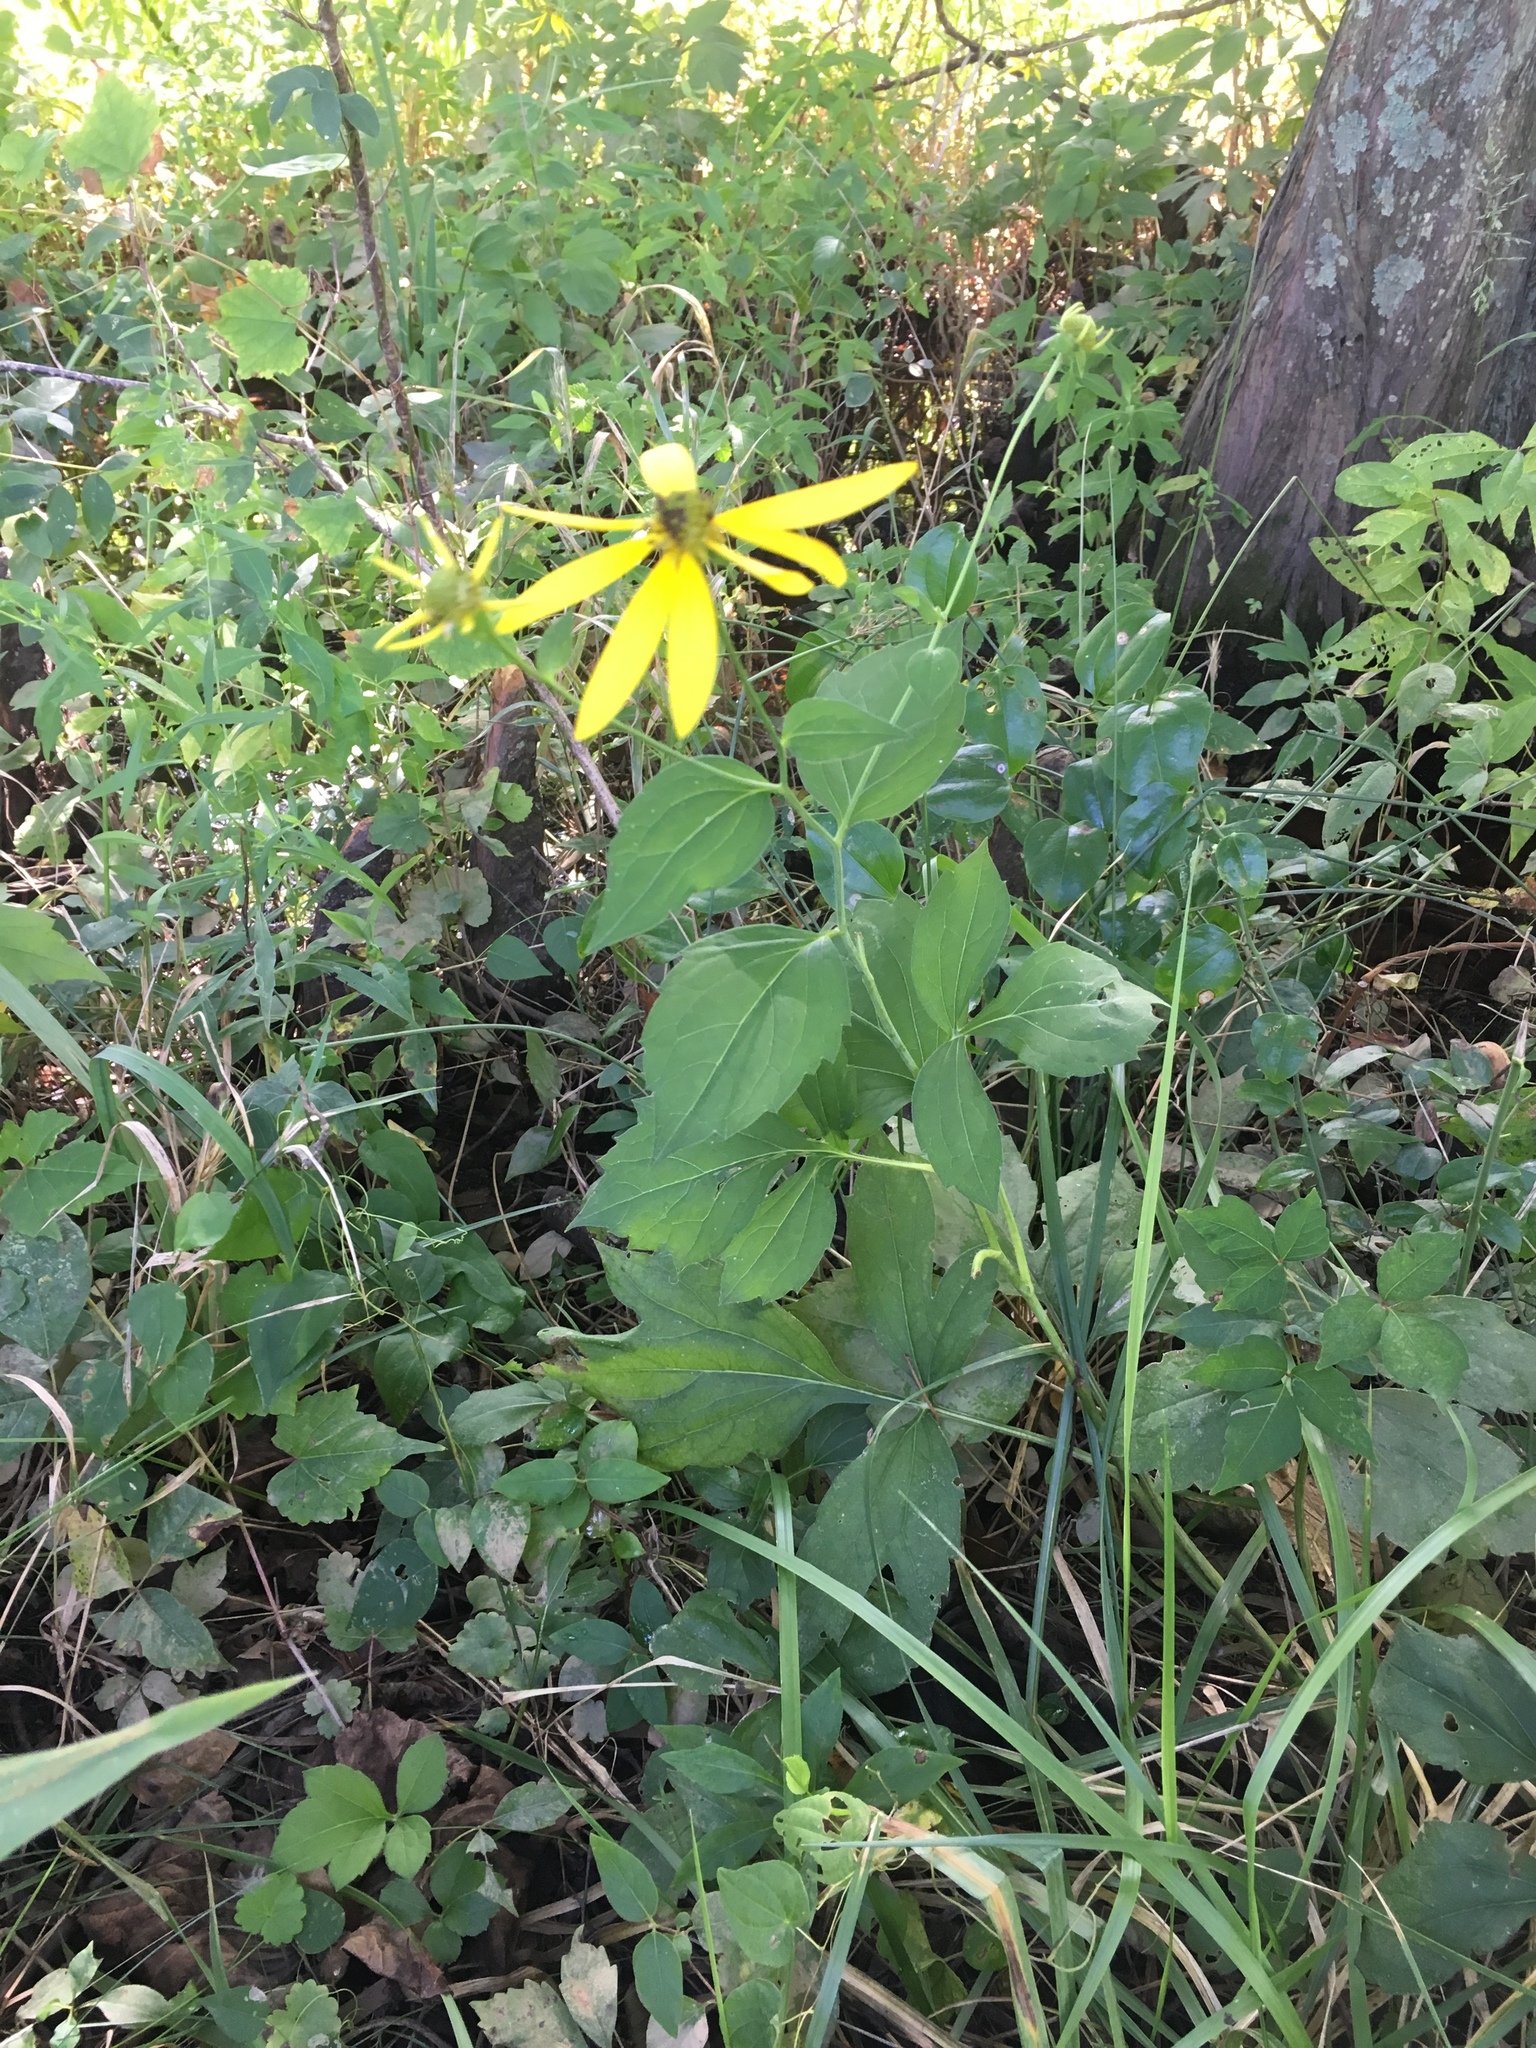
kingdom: Plantae
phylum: Tracheophyta
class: Magnoliopsida
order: Asterales
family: Asteraceae
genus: Rudbeckia
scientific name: Rudbeckia laciniata
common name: Coneflower
